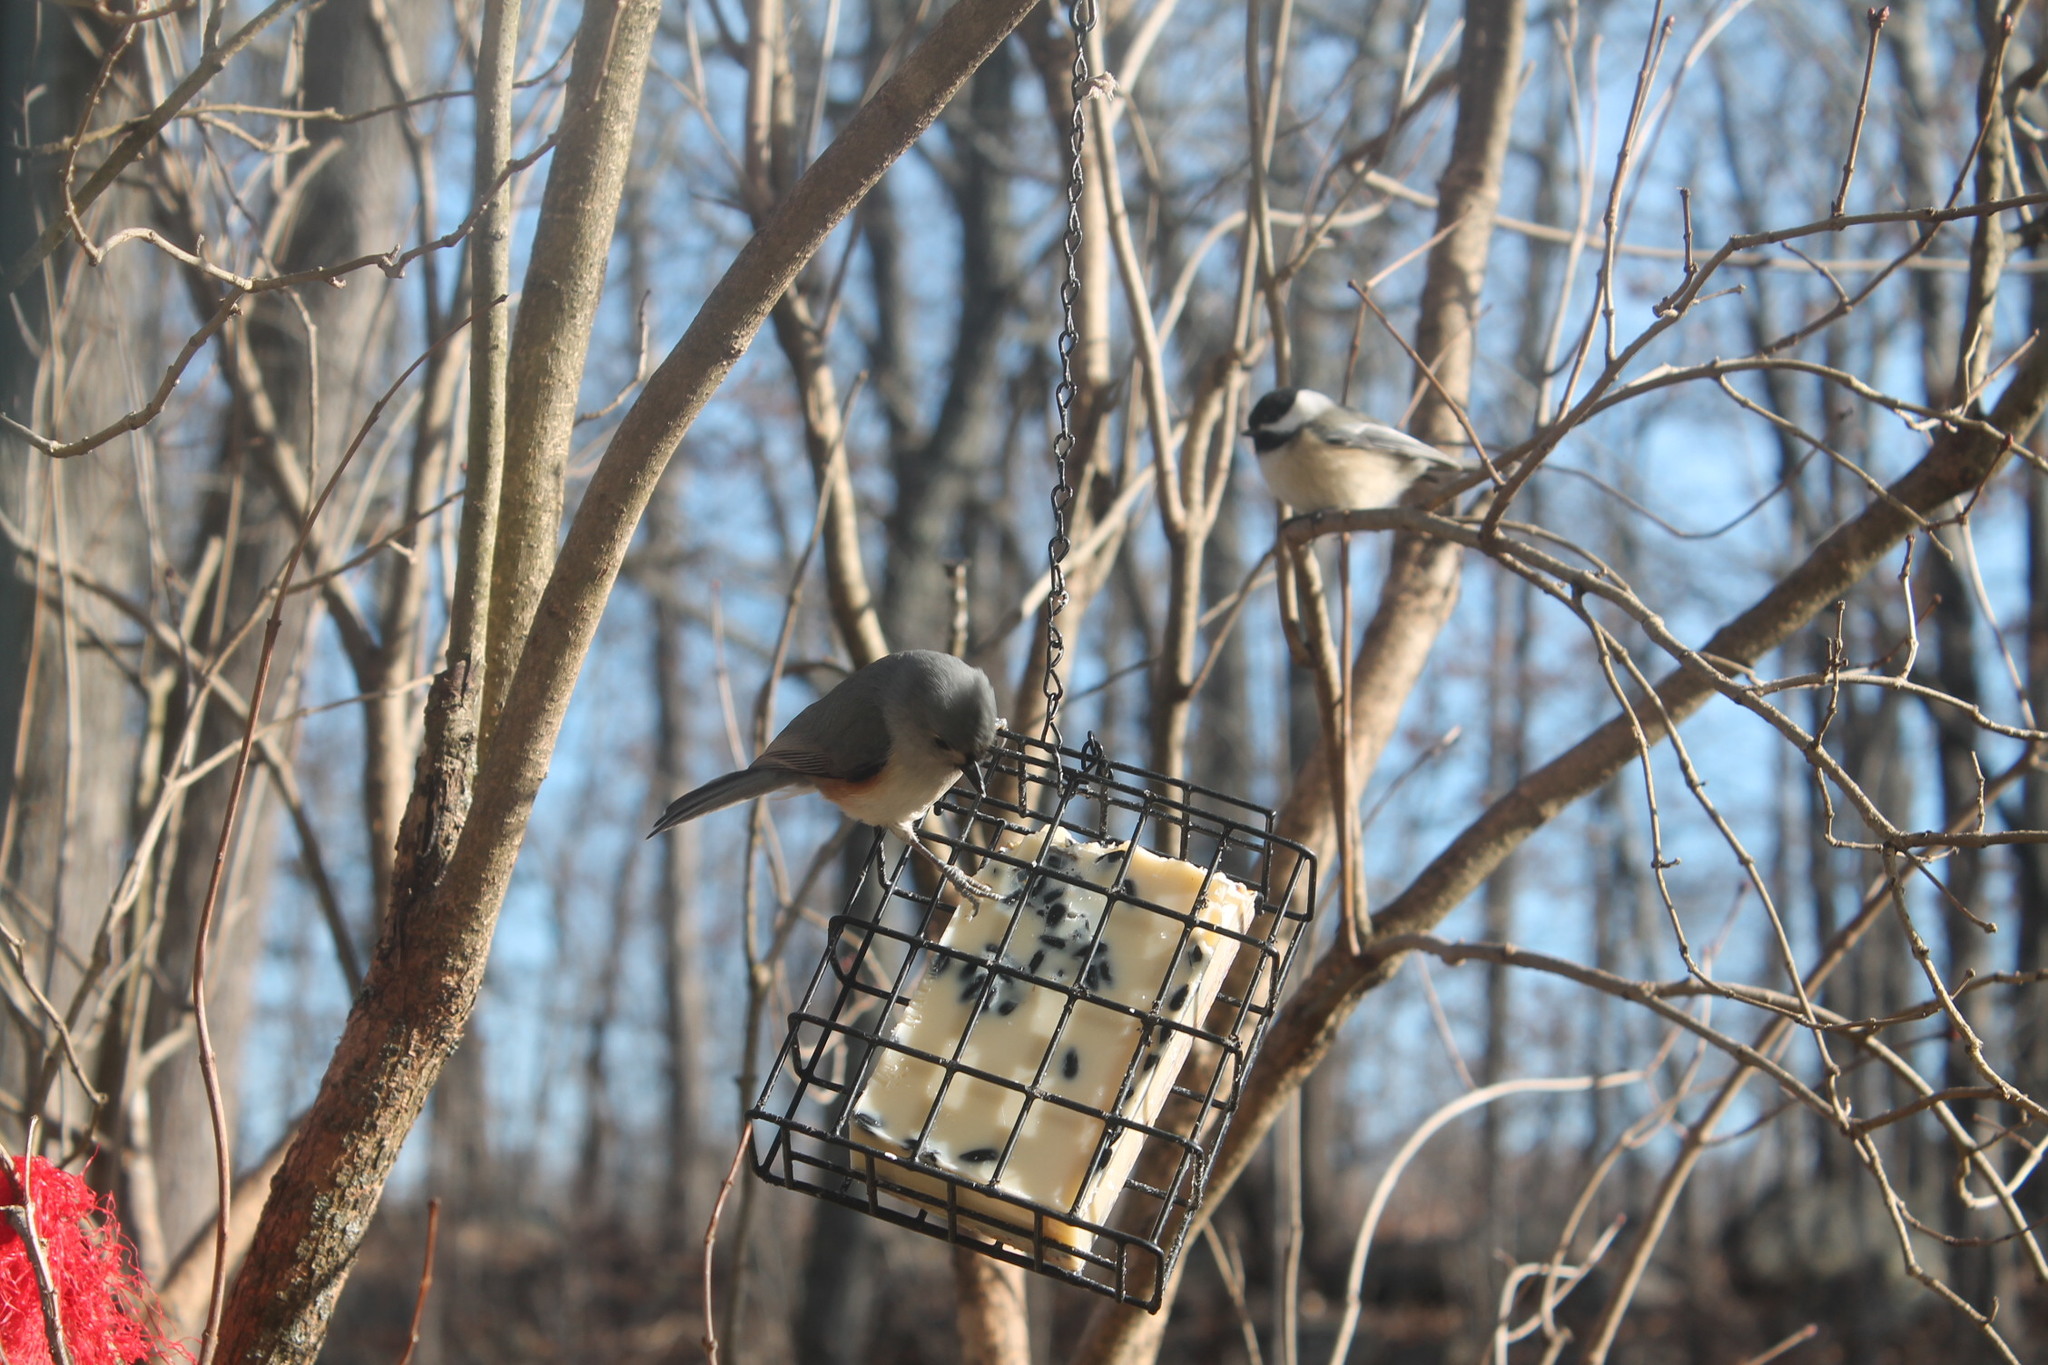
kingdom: Animalia
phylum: Chordata
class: Aves
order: Passeriformes
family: Paridae
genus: Baeolophus
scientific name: Baeolophus bicolor
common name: Tufted titmouse
